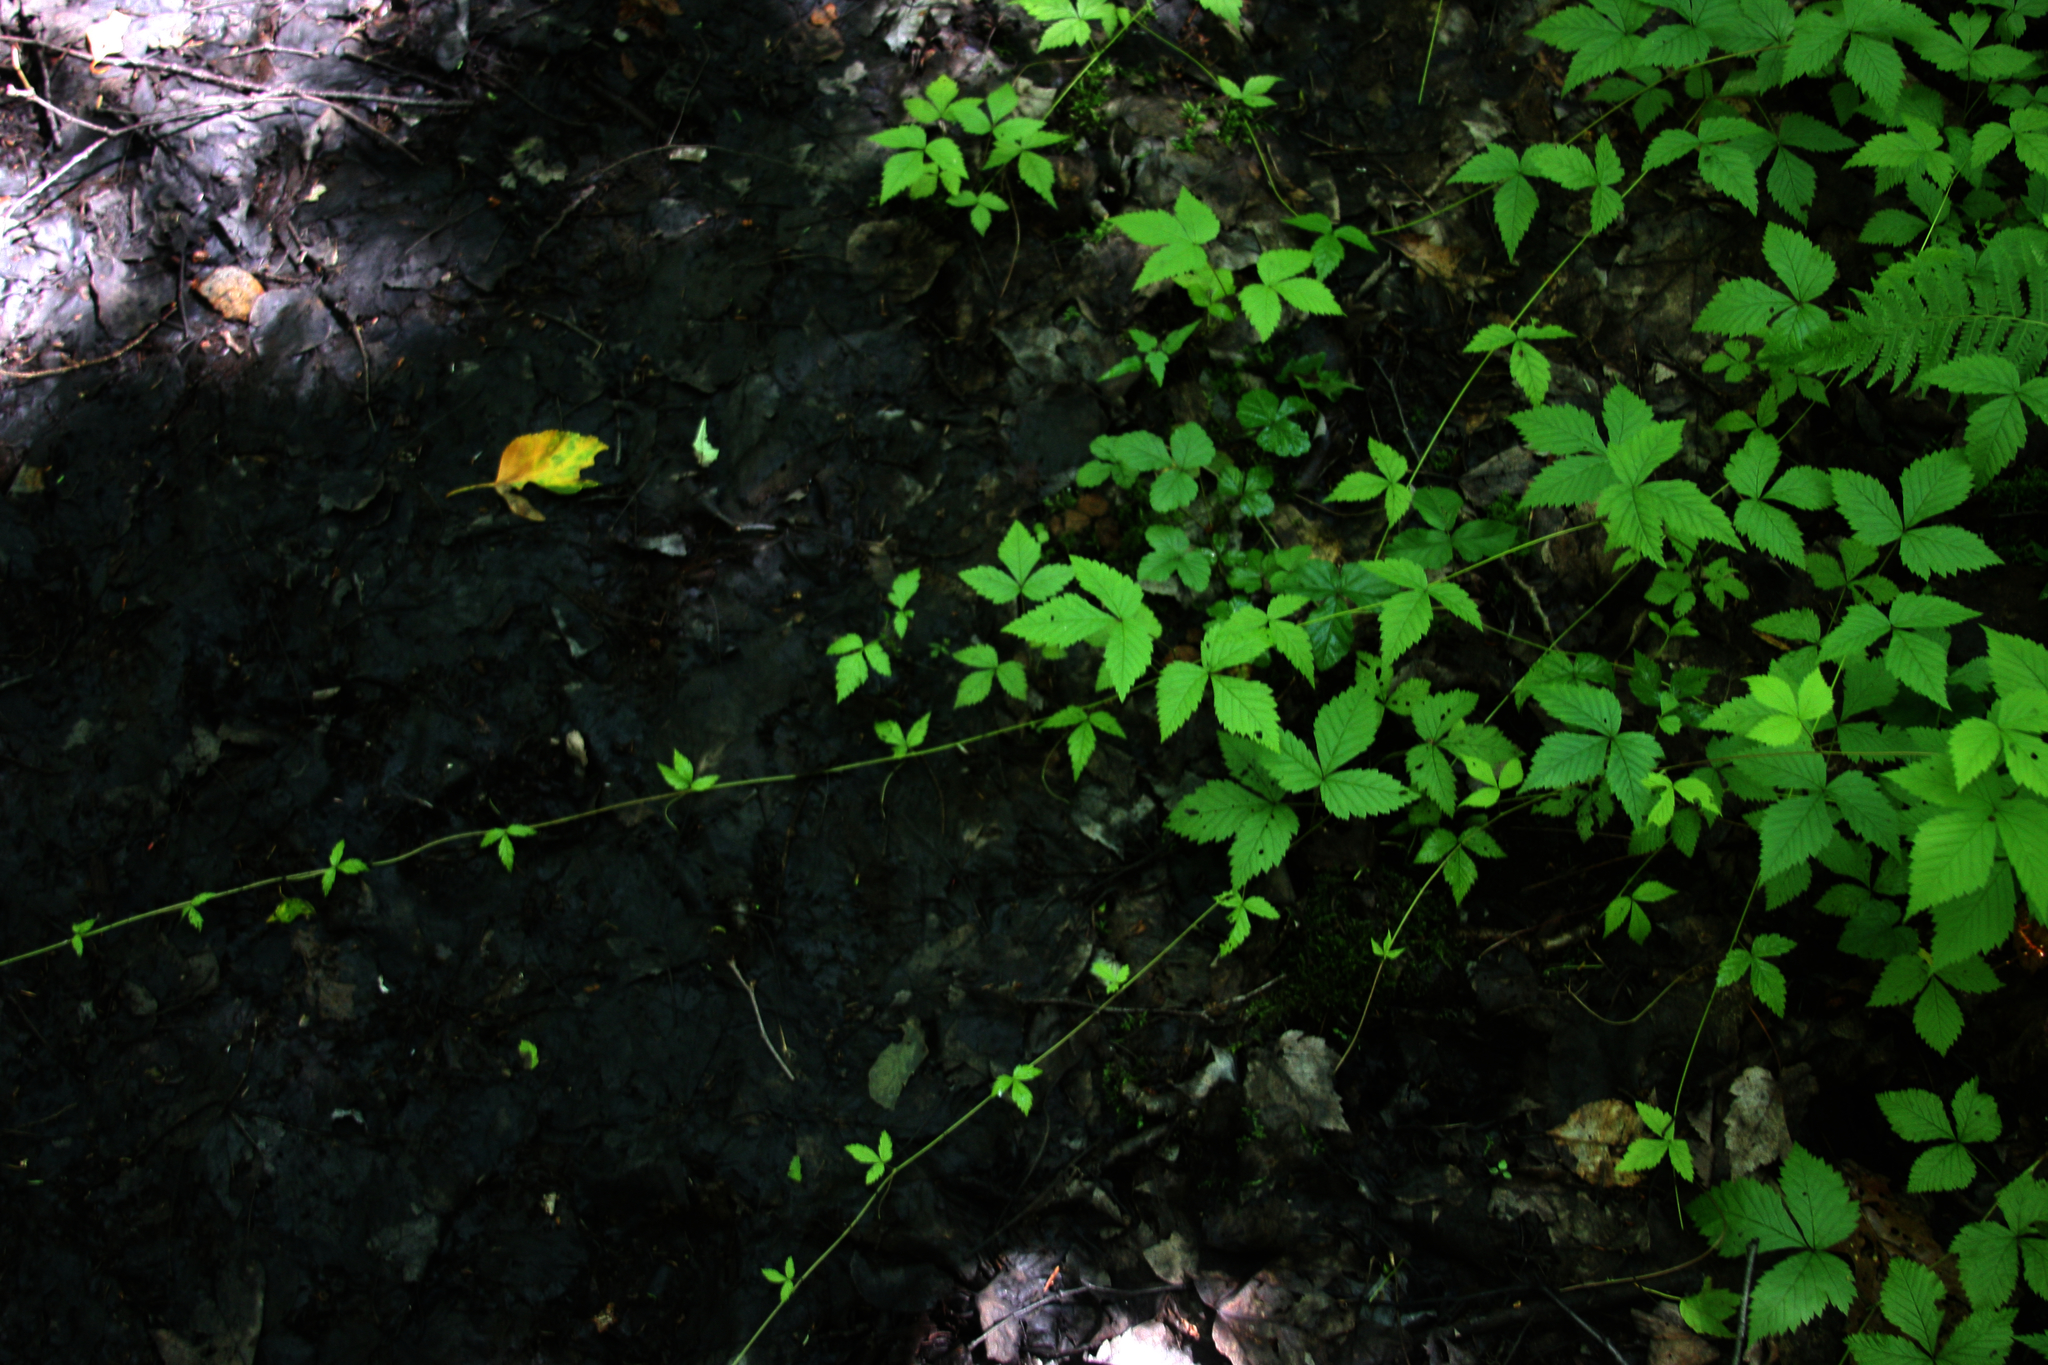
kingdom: Plantae
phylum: Tracheophyta
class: Magnoliopsida
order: Rosales
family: Rosaceae
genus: Rubus
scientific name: Rubus pubescens
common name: Dwarf raspberry
